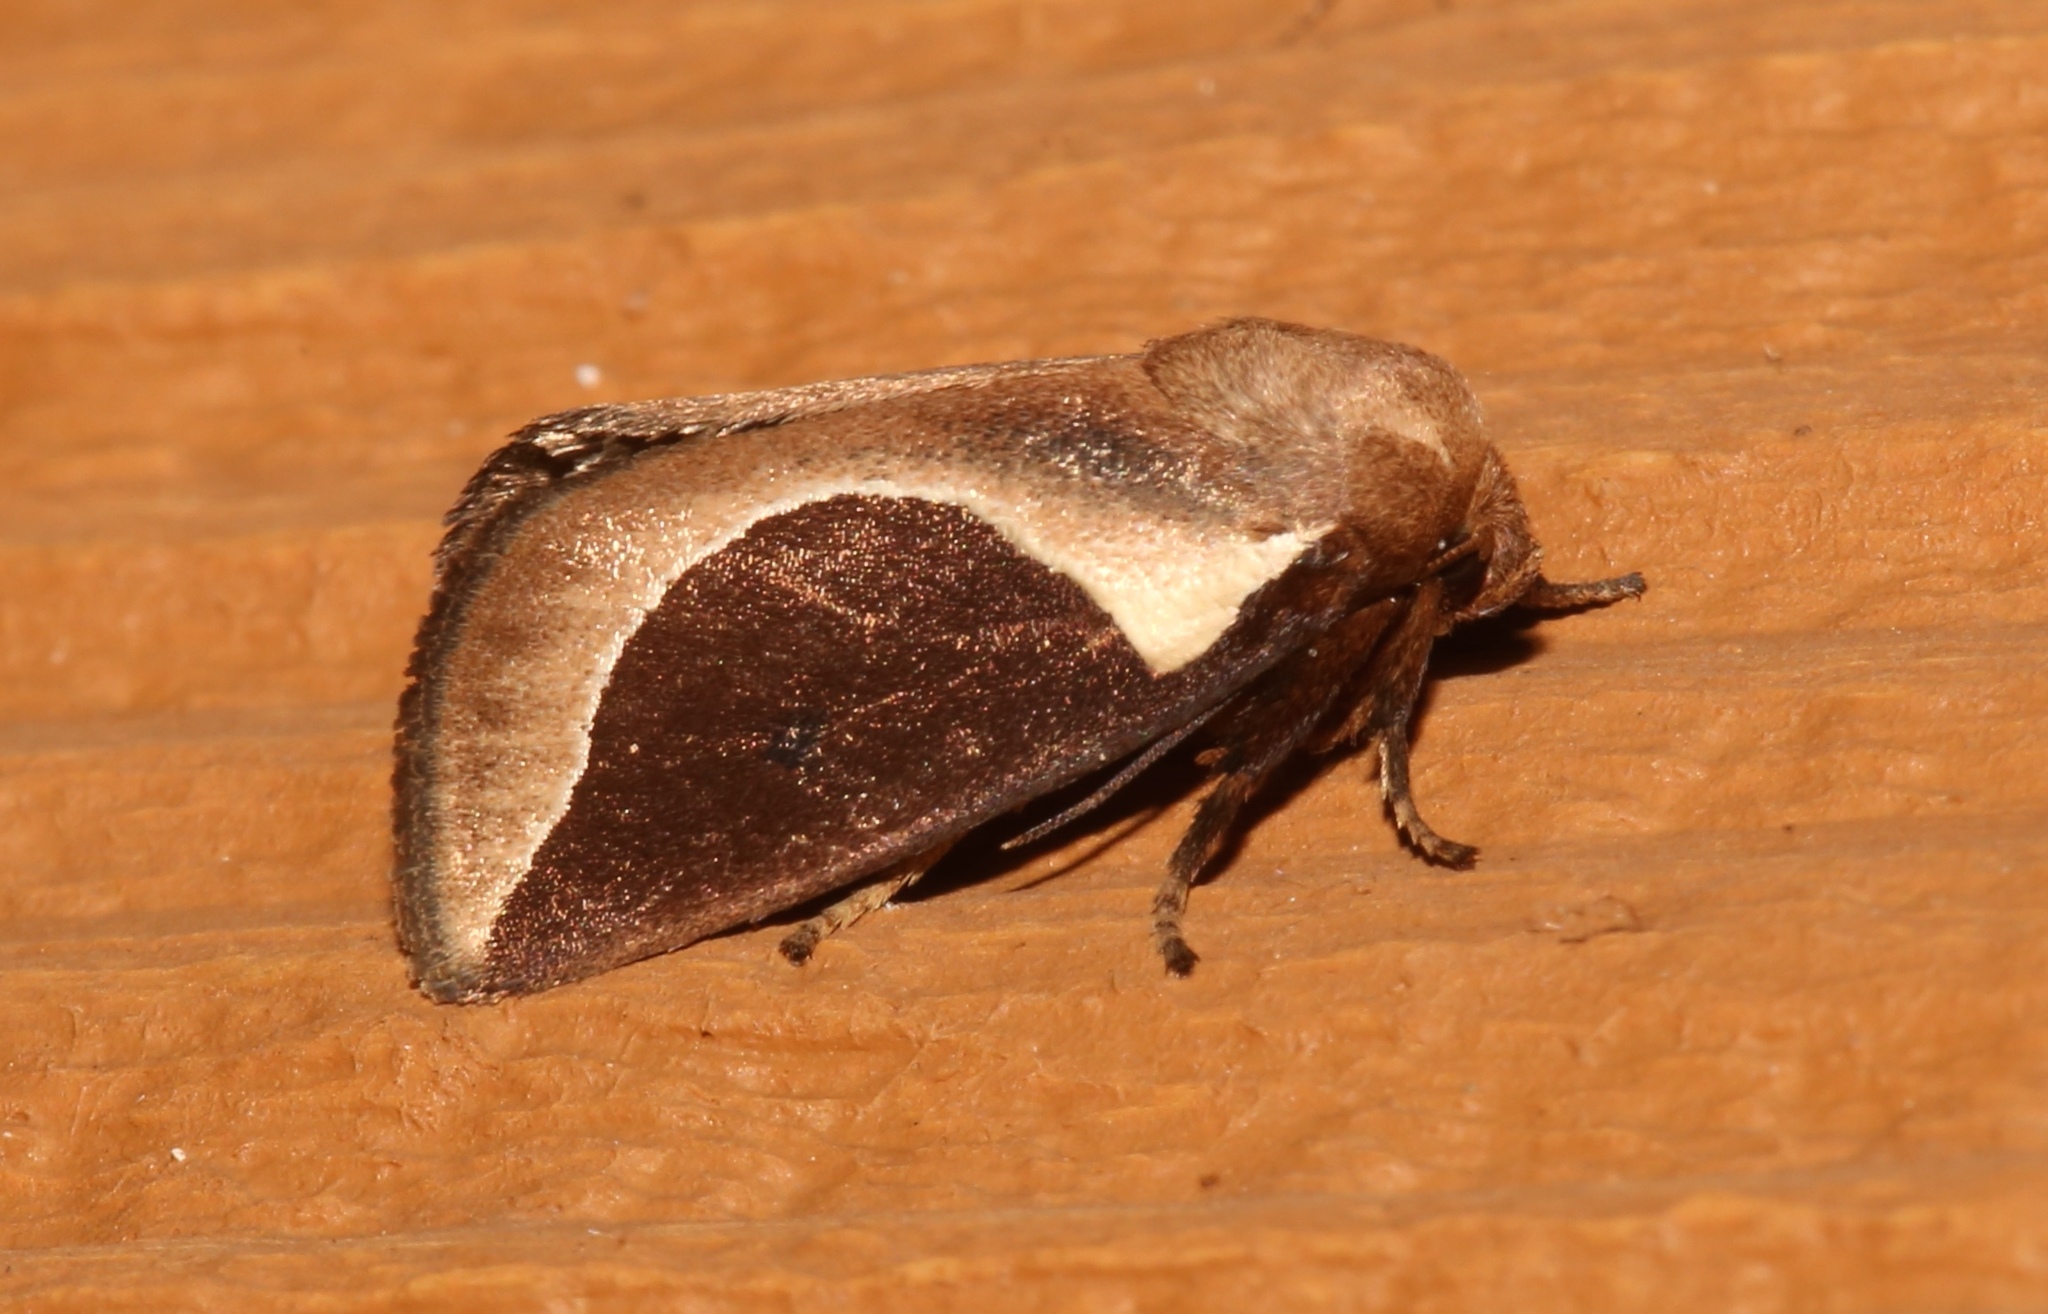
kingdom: Animalia
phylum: Arthropoda
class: Insecta
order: Lepidoptera
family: Limacodidae
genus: Prolimacodes
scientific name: Prolimacodes badia
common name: Skiff moth
